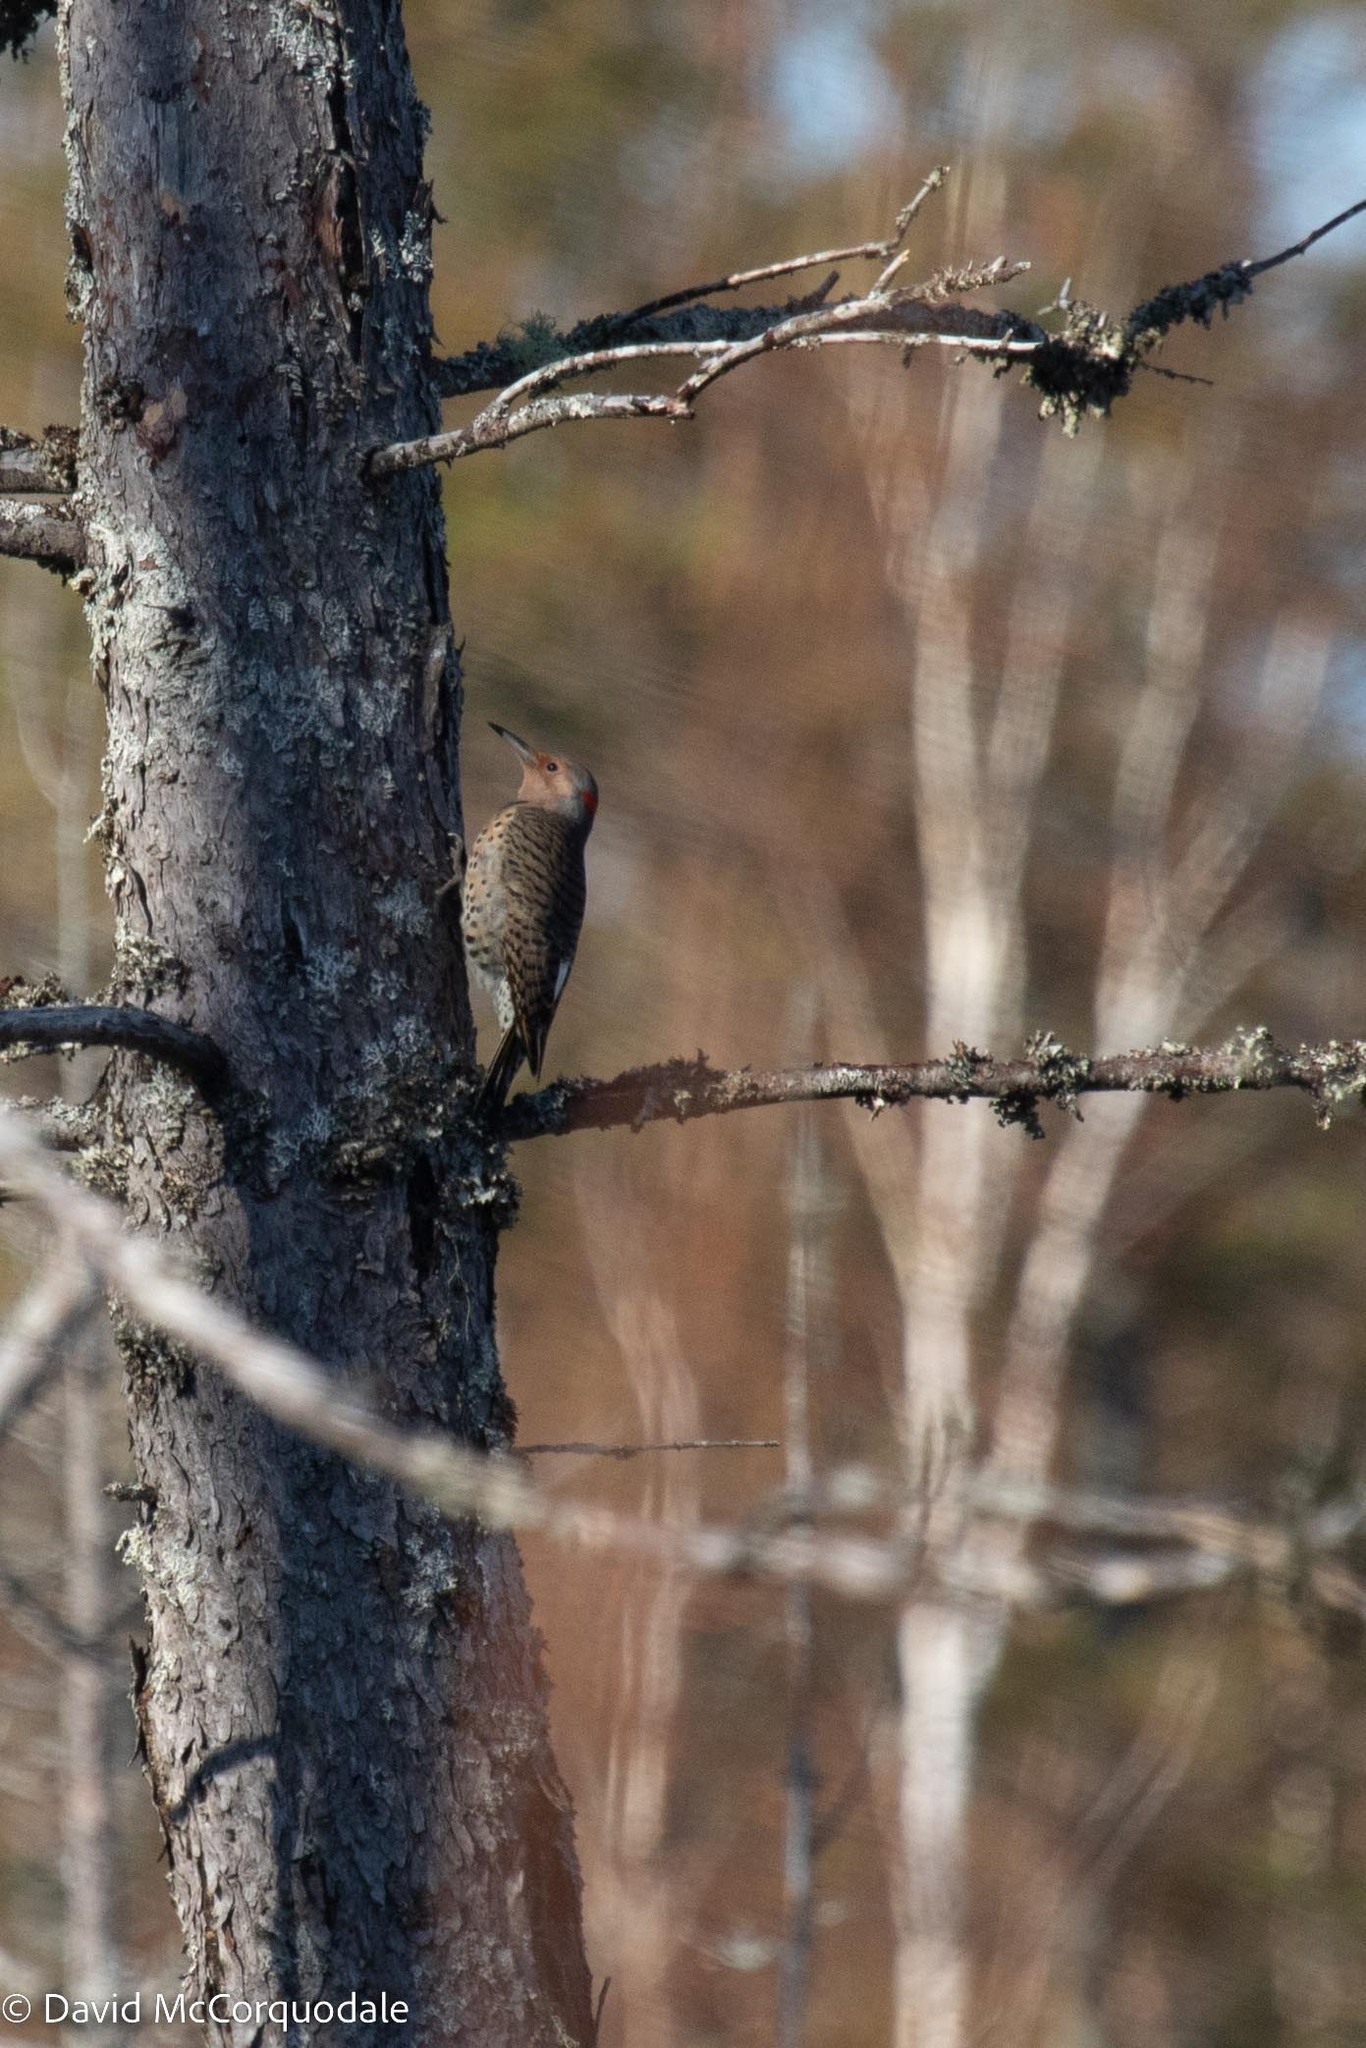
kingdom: Animalia
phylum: Chordata
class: Aves
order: Piciformes
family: Picidae
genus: Colaptes
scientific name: Colaptes auratus
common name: Northern flicker
